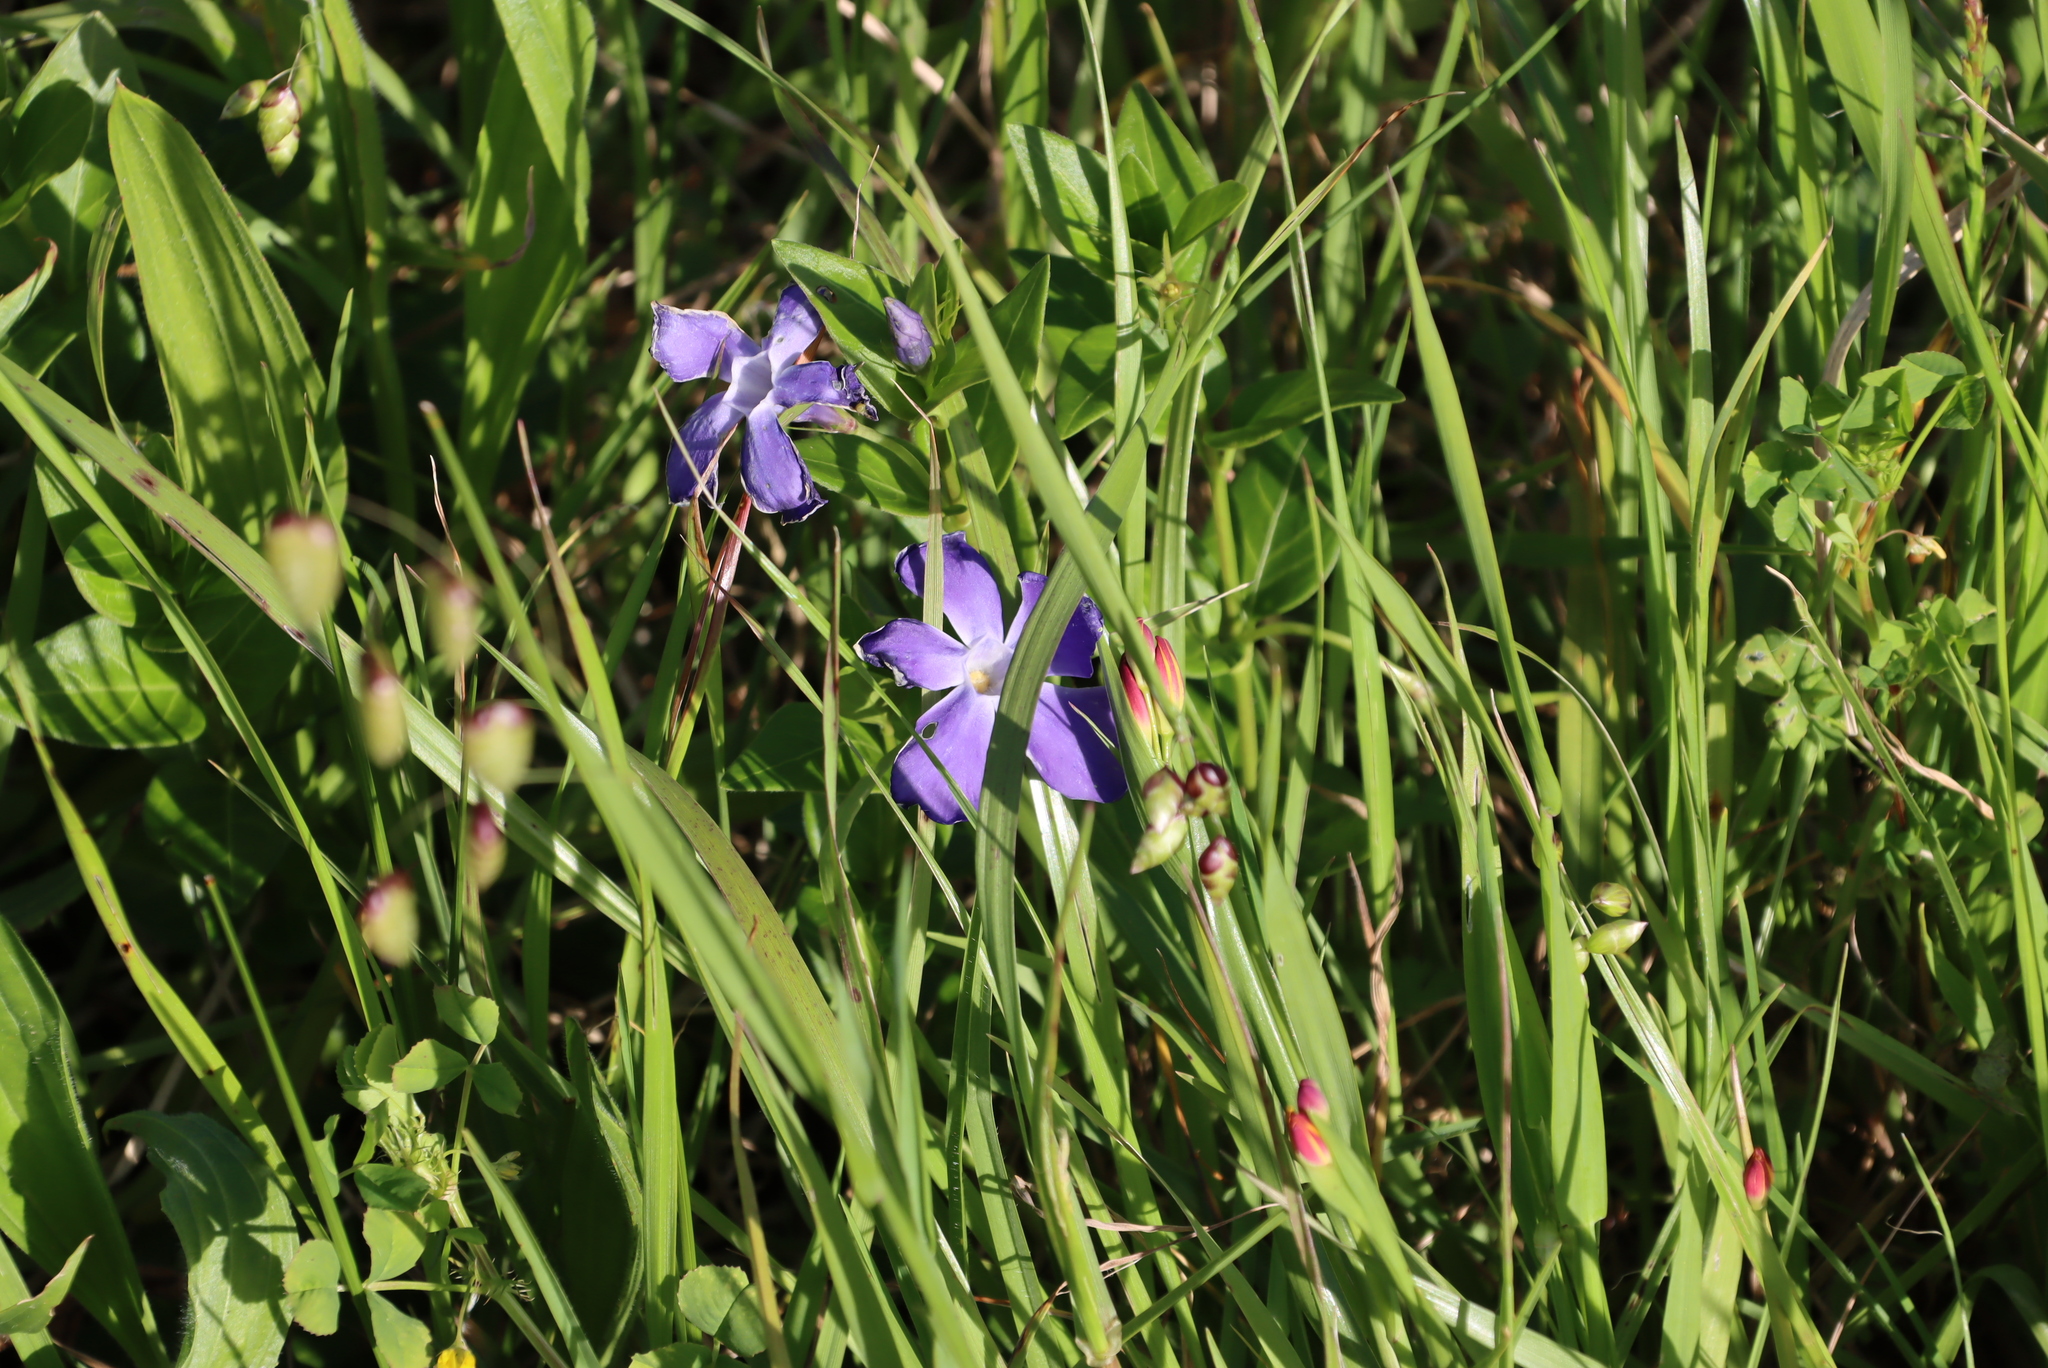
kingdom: Plantae
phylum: Tracheophyta
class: Magnoliopsida
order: Gentianales
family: Apocynaceae
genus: Vinca
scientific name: Vinca major
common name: Greater periwinkle
